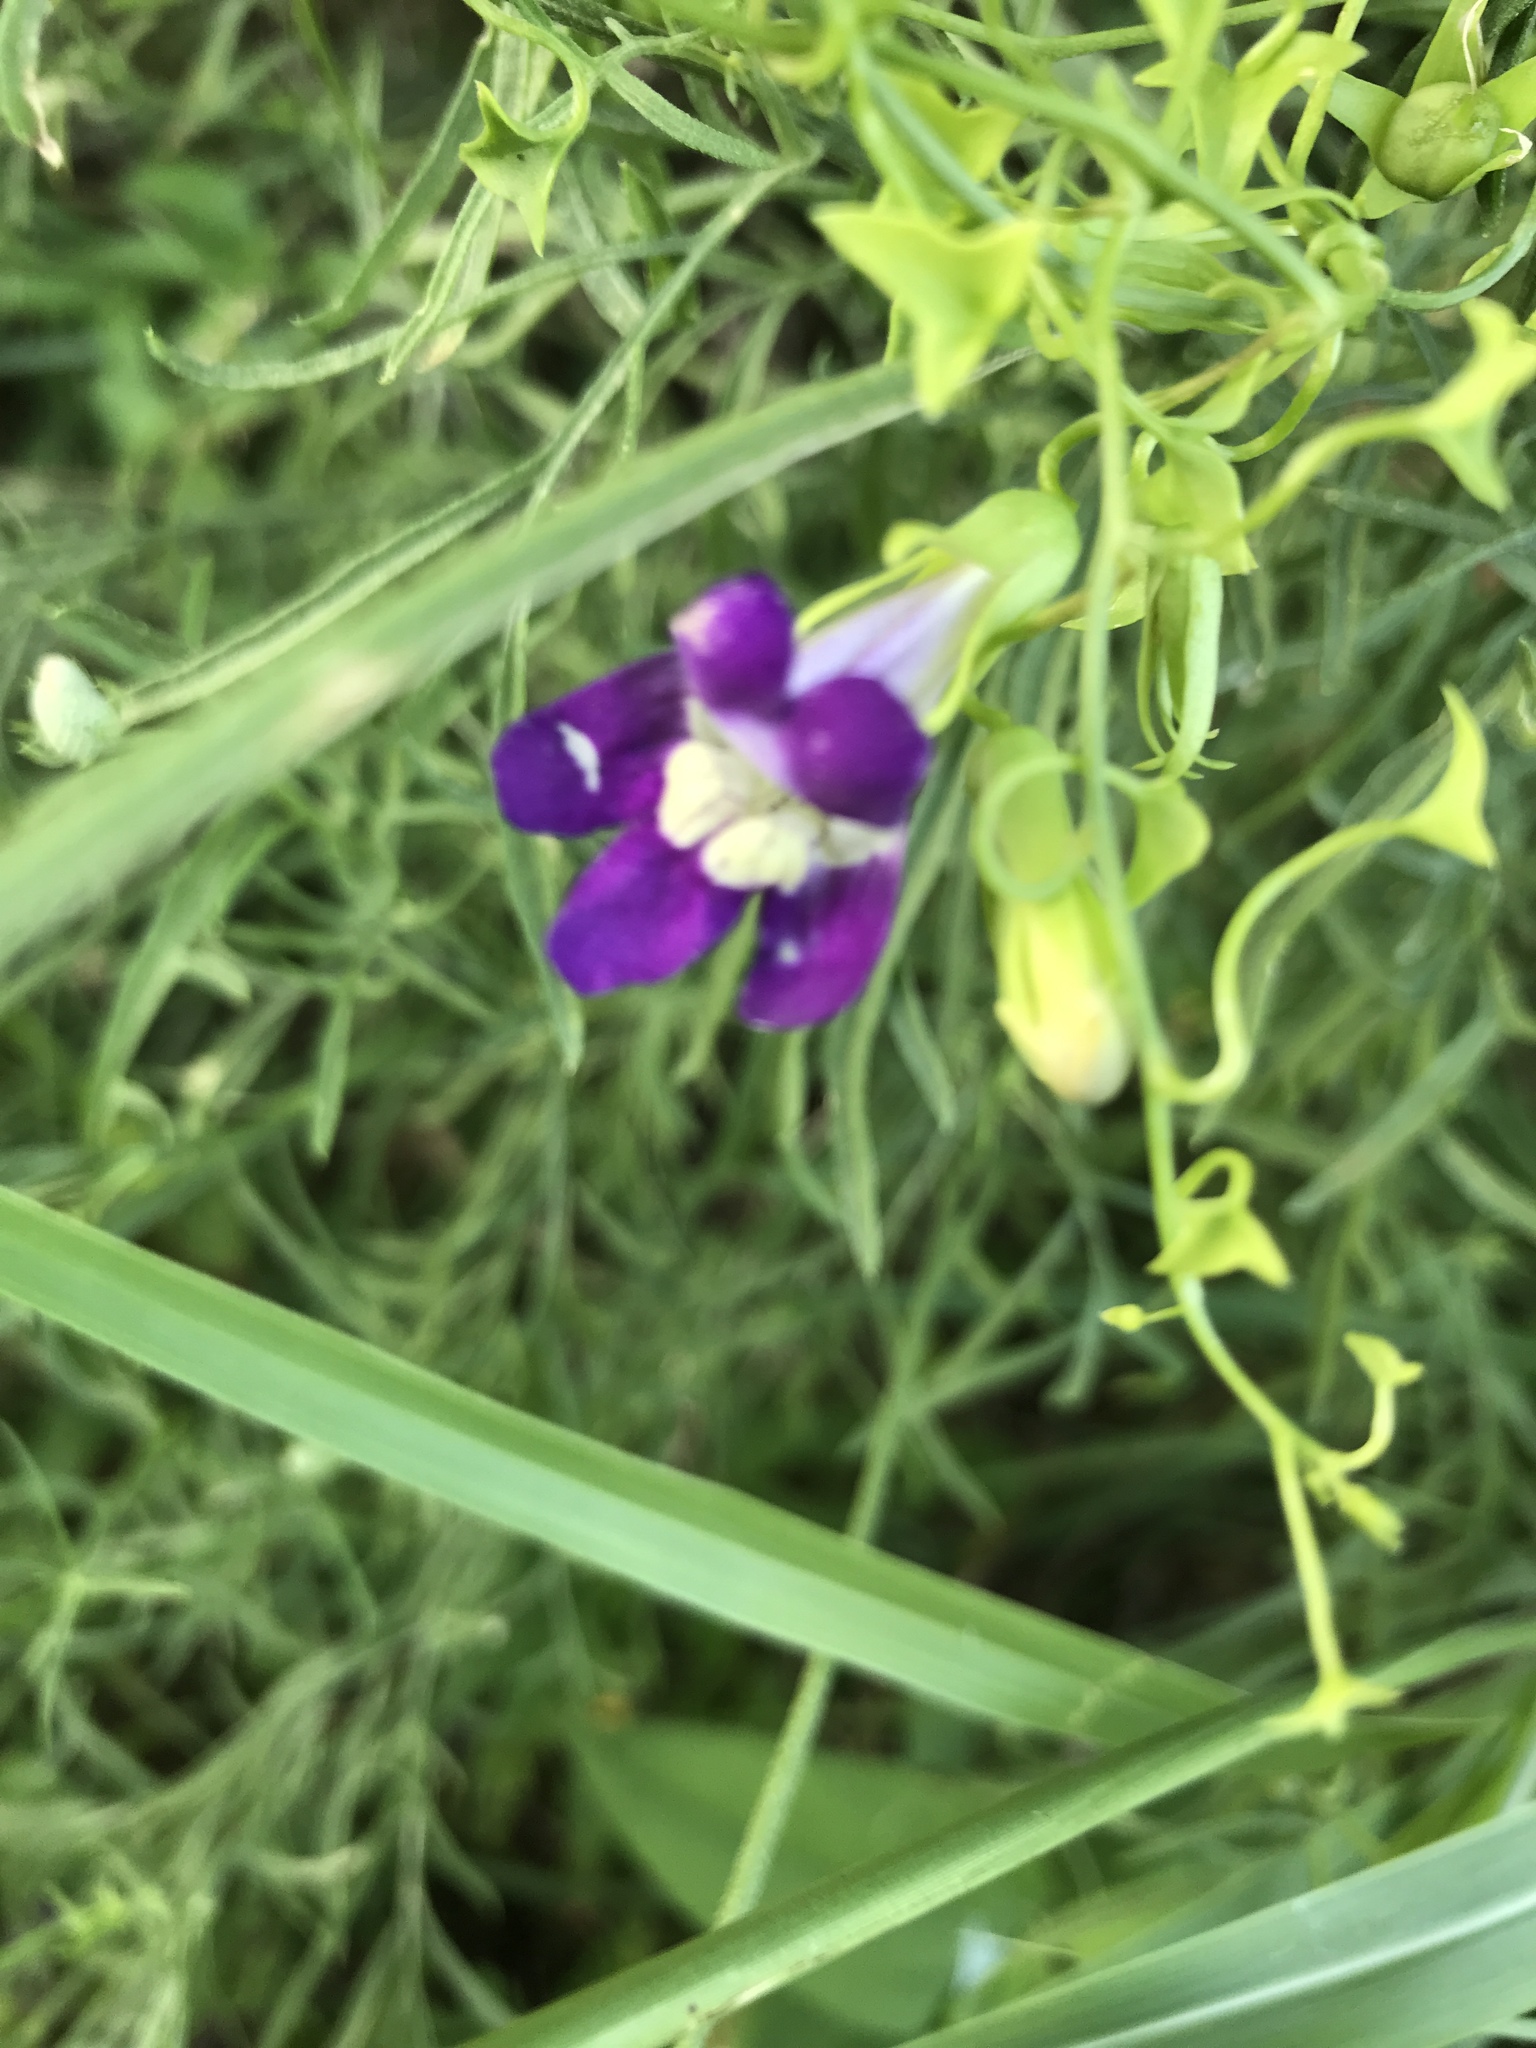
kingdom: Plantae
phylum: Tracheophyta
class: Magnoliopsida
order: Lamiales
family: Plantaginaceae
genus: Maurandella
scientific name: Maurandella antirrhiniflora
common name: Violet twining-snapdragon
